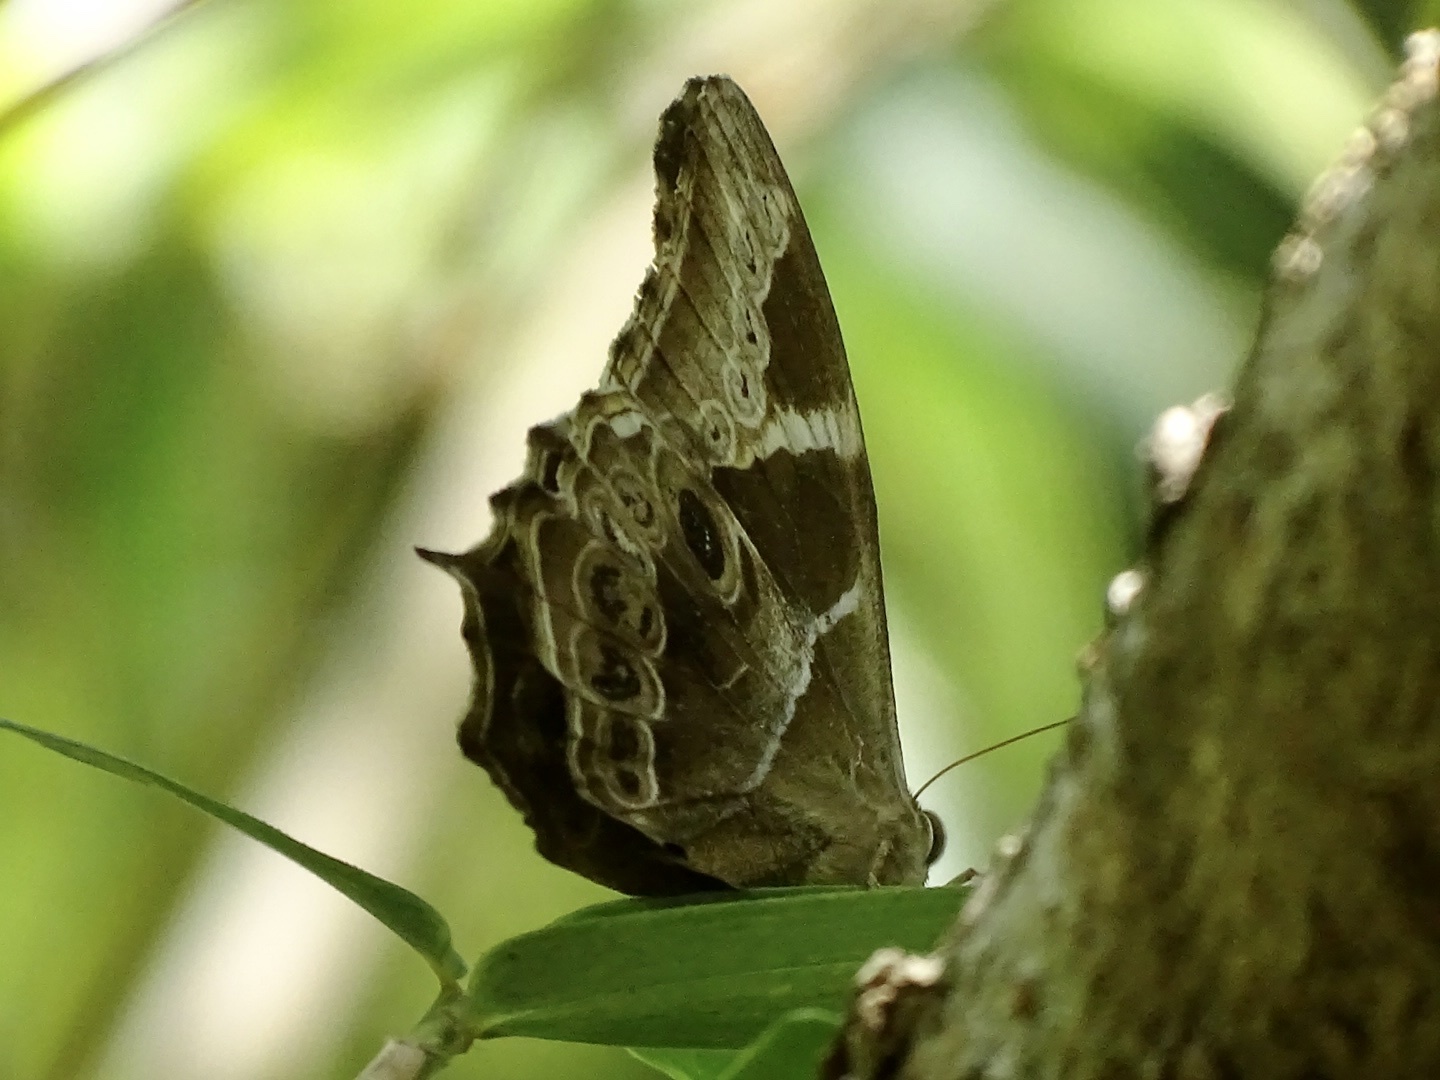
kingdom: Animalia
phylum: Arthropoda
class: Insecta
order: Lepidoptera
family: Nymphalidae
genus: Lethe
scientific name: Lethe europa
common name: Bamboo treebrown
